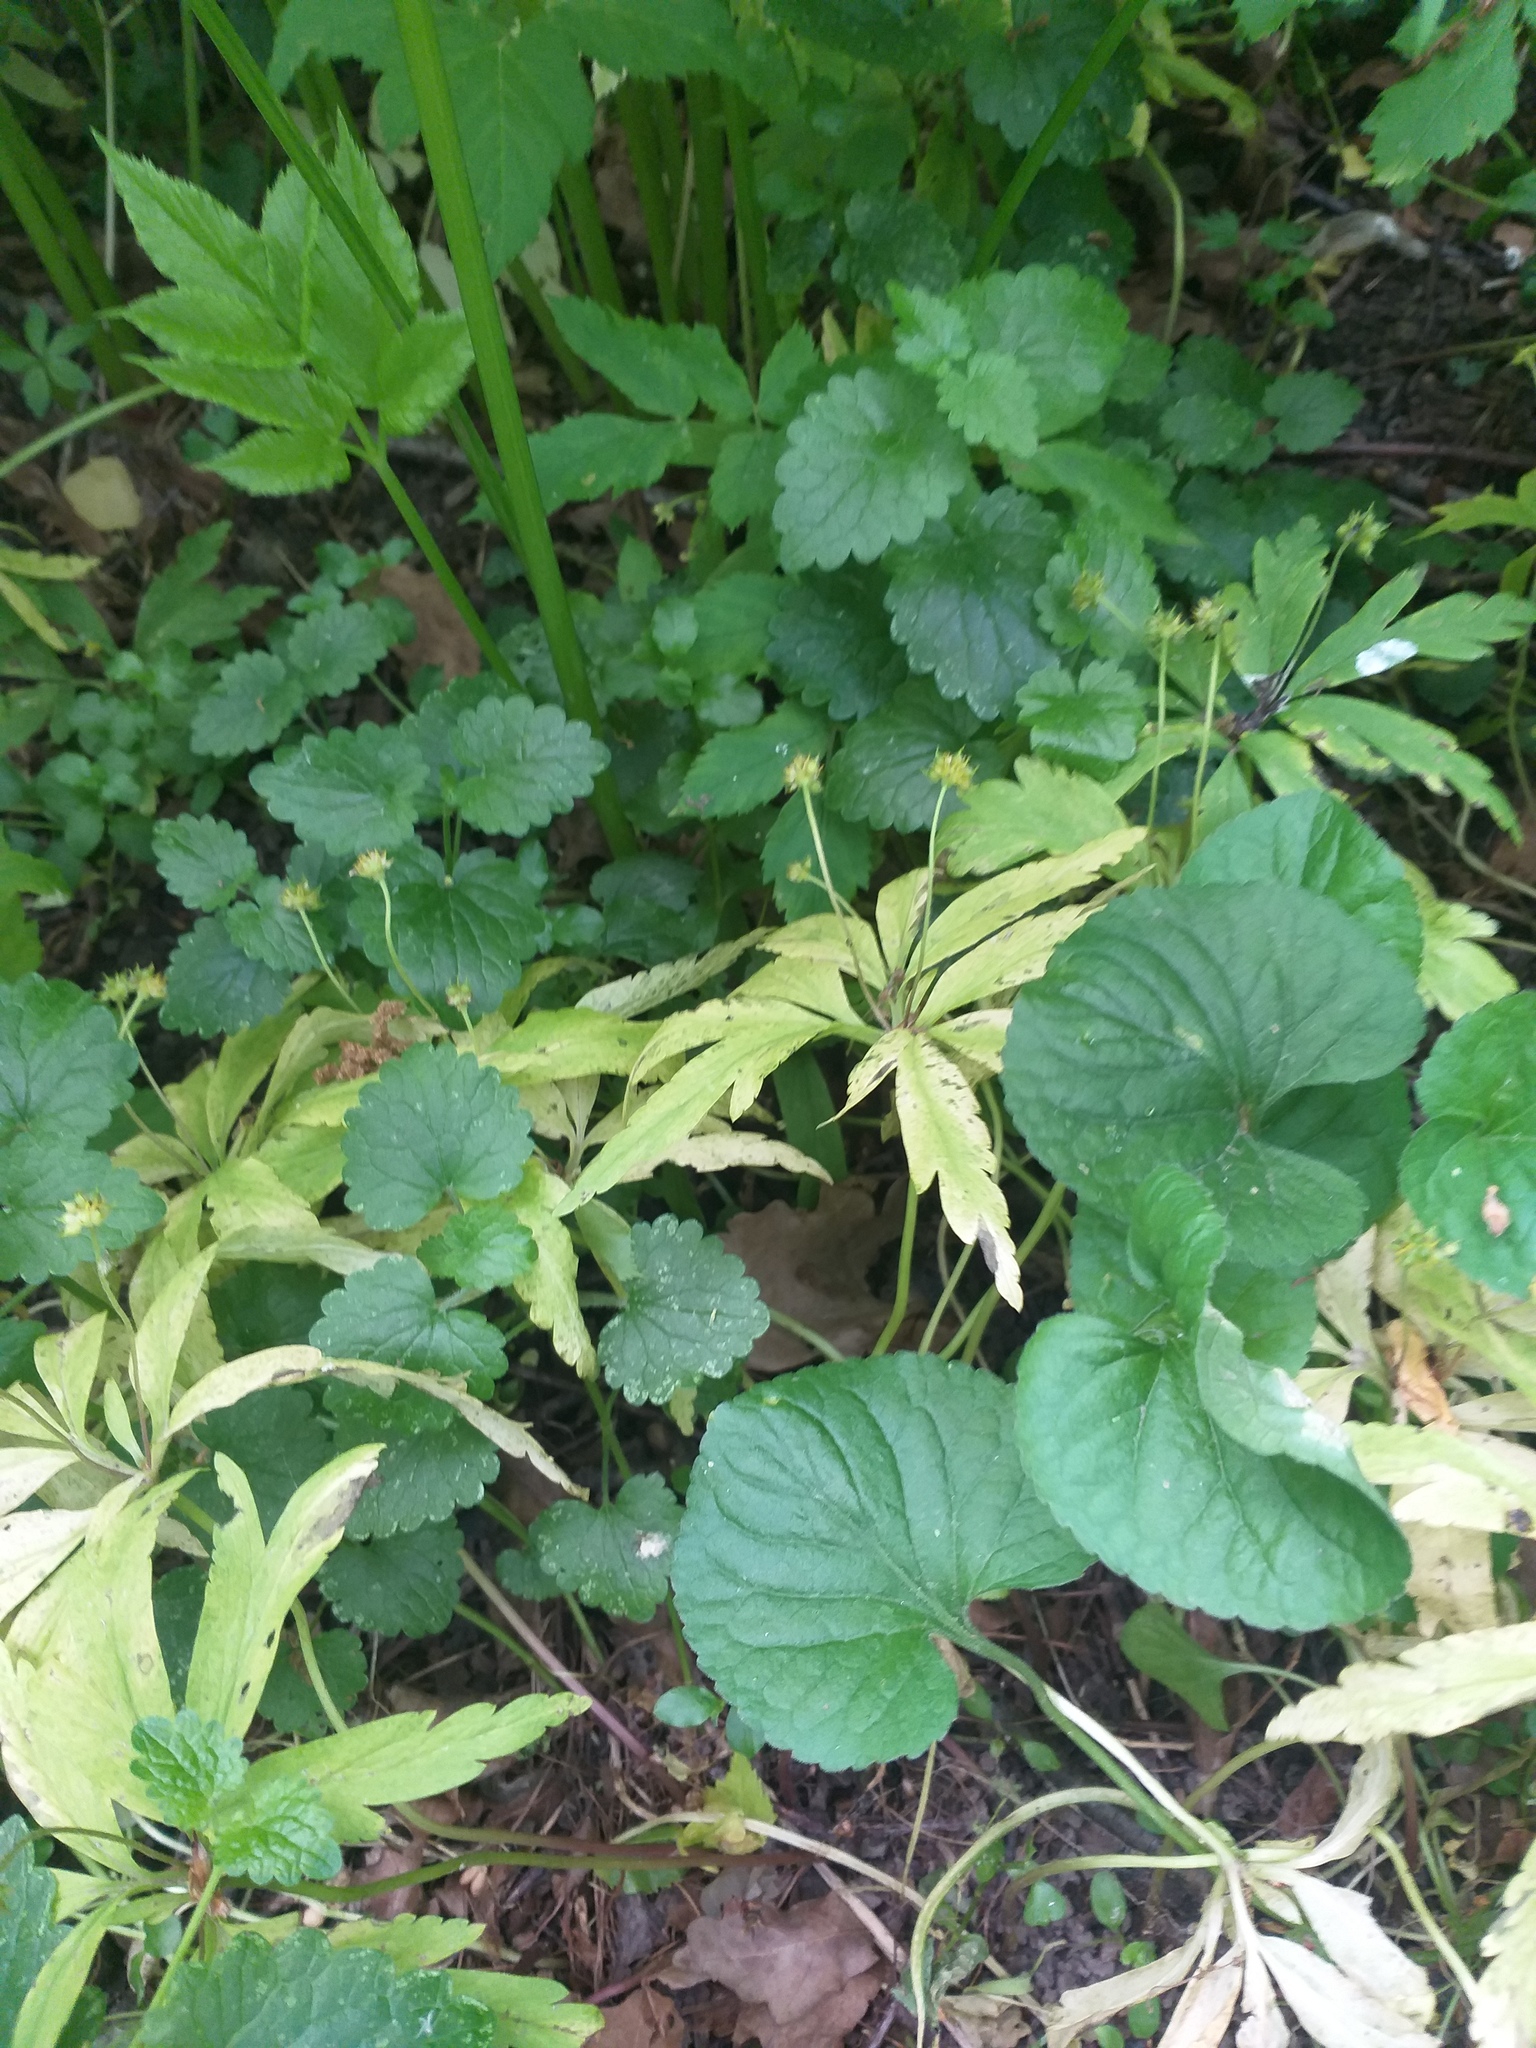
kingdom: Plantae
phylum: Tracheophyta
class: Magnoliopsida
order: Ranunculales
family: Ranunculaceae
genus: Anemone
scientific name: Anemone ranunculoides
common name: Yellow anemone
